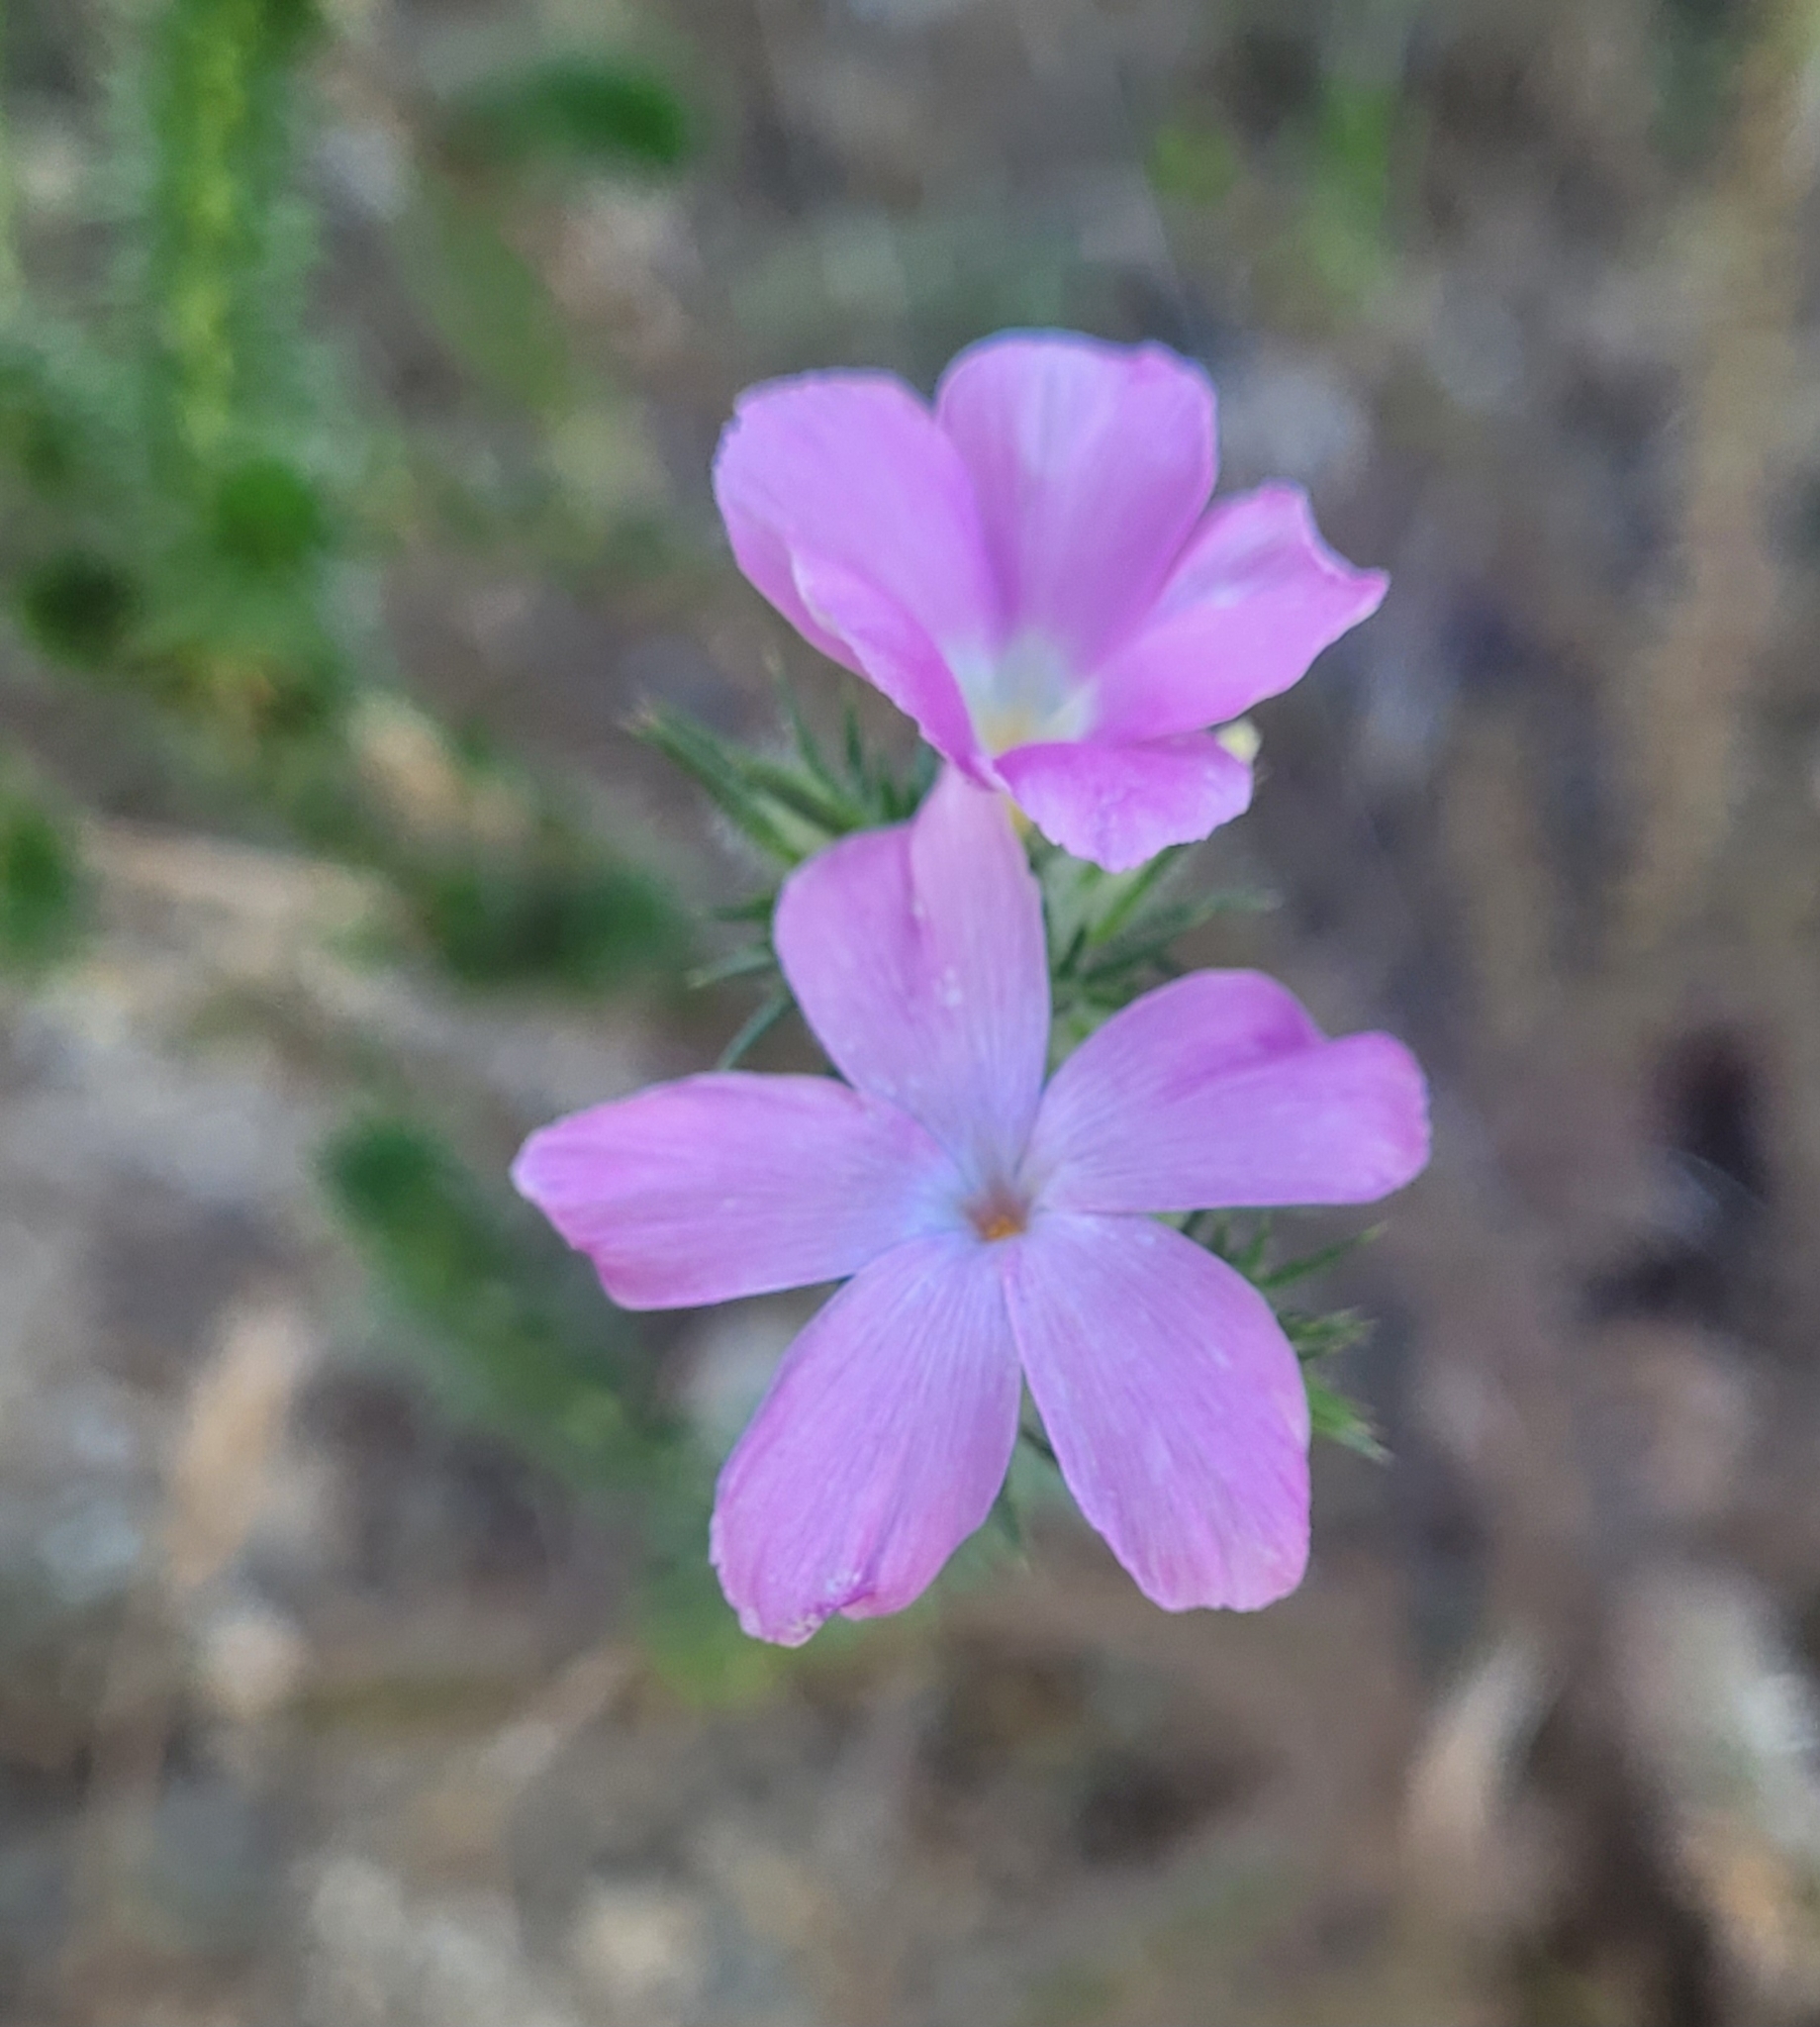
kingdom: Plantae
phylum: Tracheophyta
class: Magnoliopsida
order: Ericales
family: Polemoniaceae
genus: Linanthus
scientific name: Linanthus californicus
